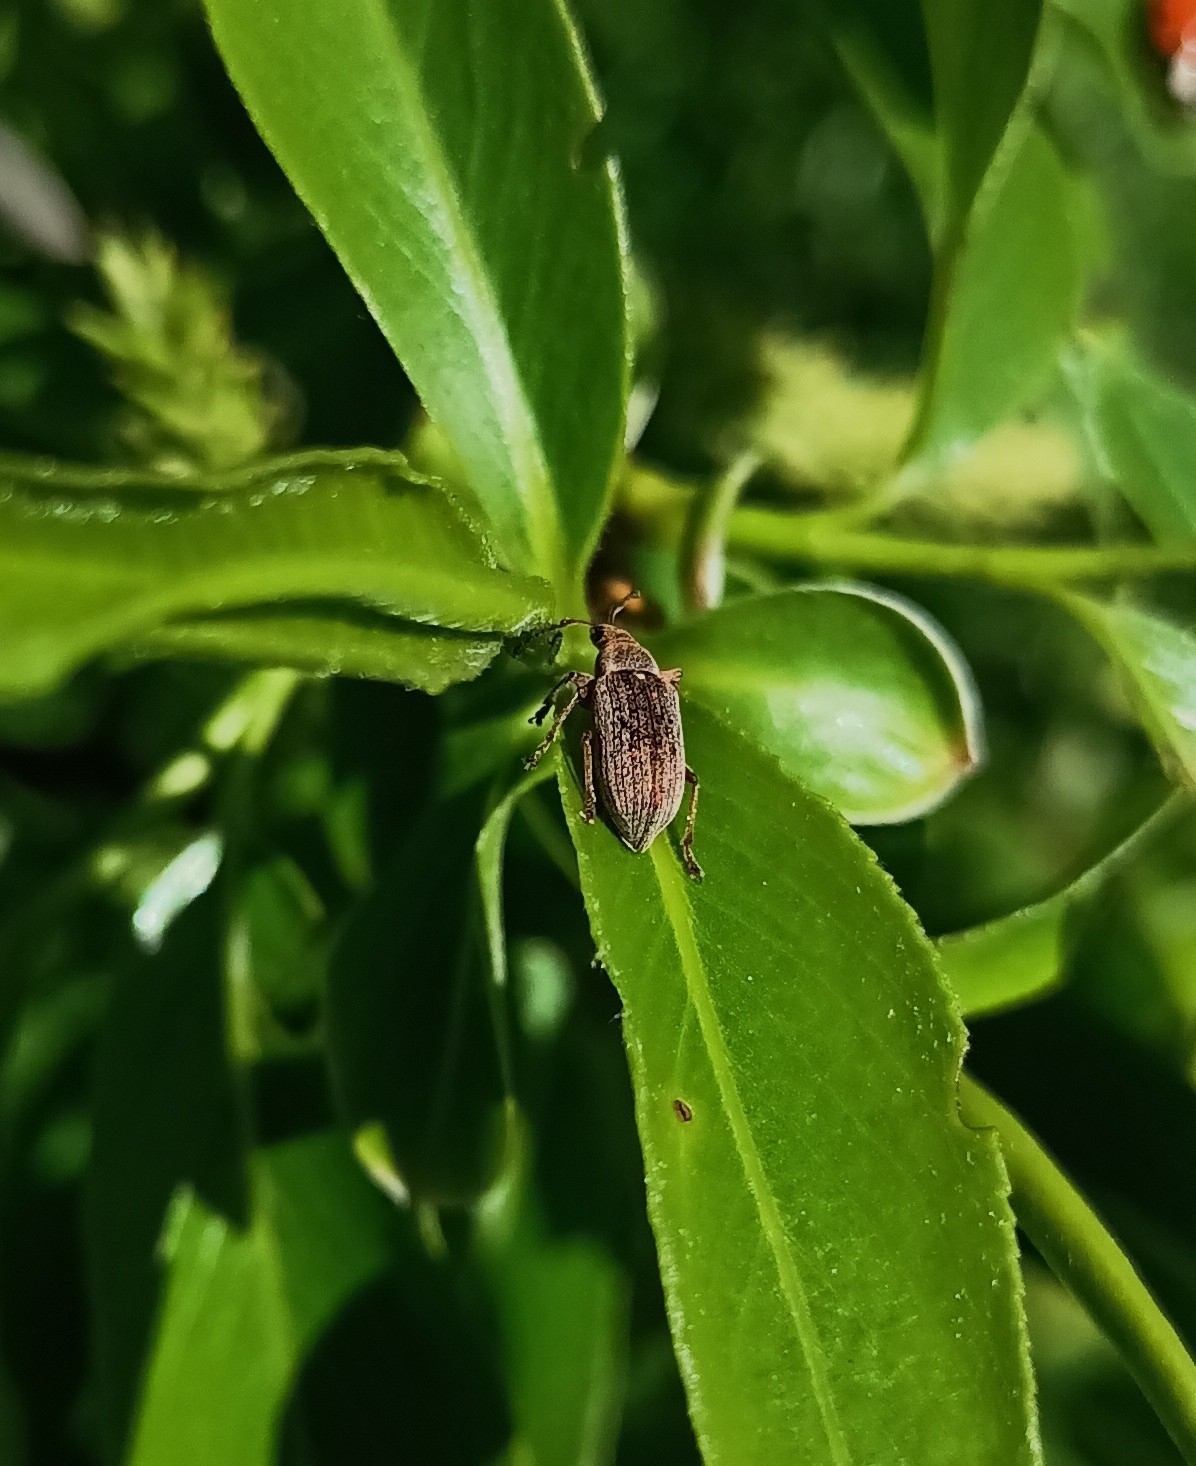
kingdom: Animalia
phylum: Arthropoda
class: Insecta
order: Coleoptera
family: Curculionidae
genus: Phyllobius
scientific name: Phyllobius pyri
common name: Common leaf weevil
